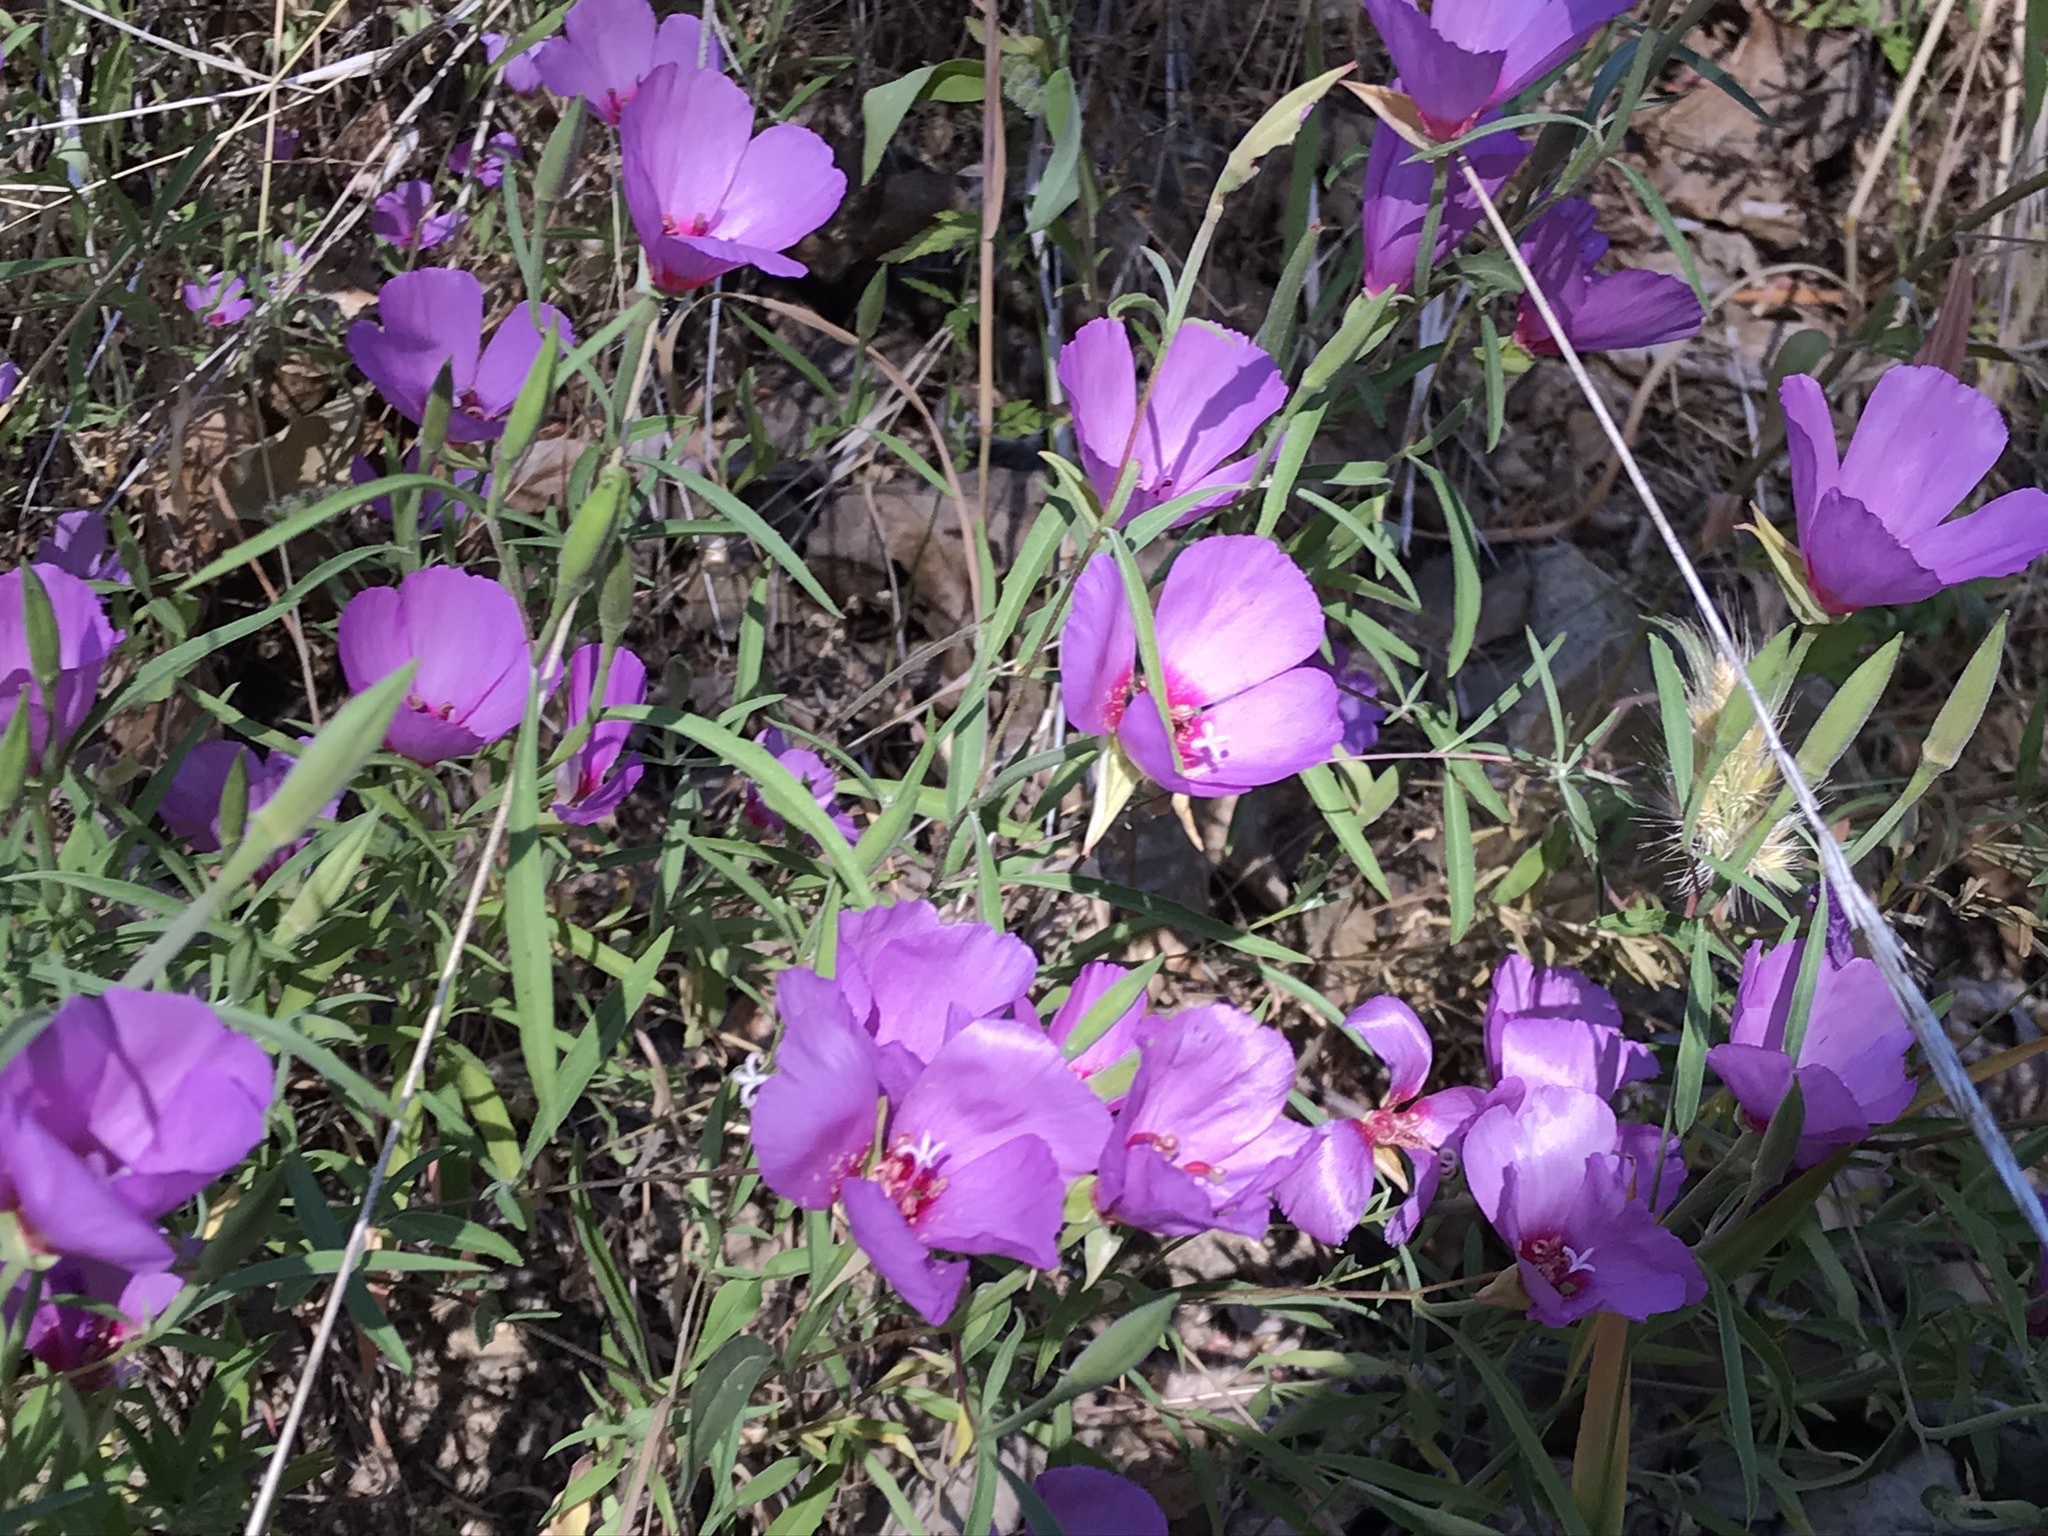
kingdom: Plantae
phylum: Tracheophyta
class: Magnoliopsida
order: Myrtales
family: Onagraceae
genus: Clarkia
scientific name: Clarkia rubicunda
